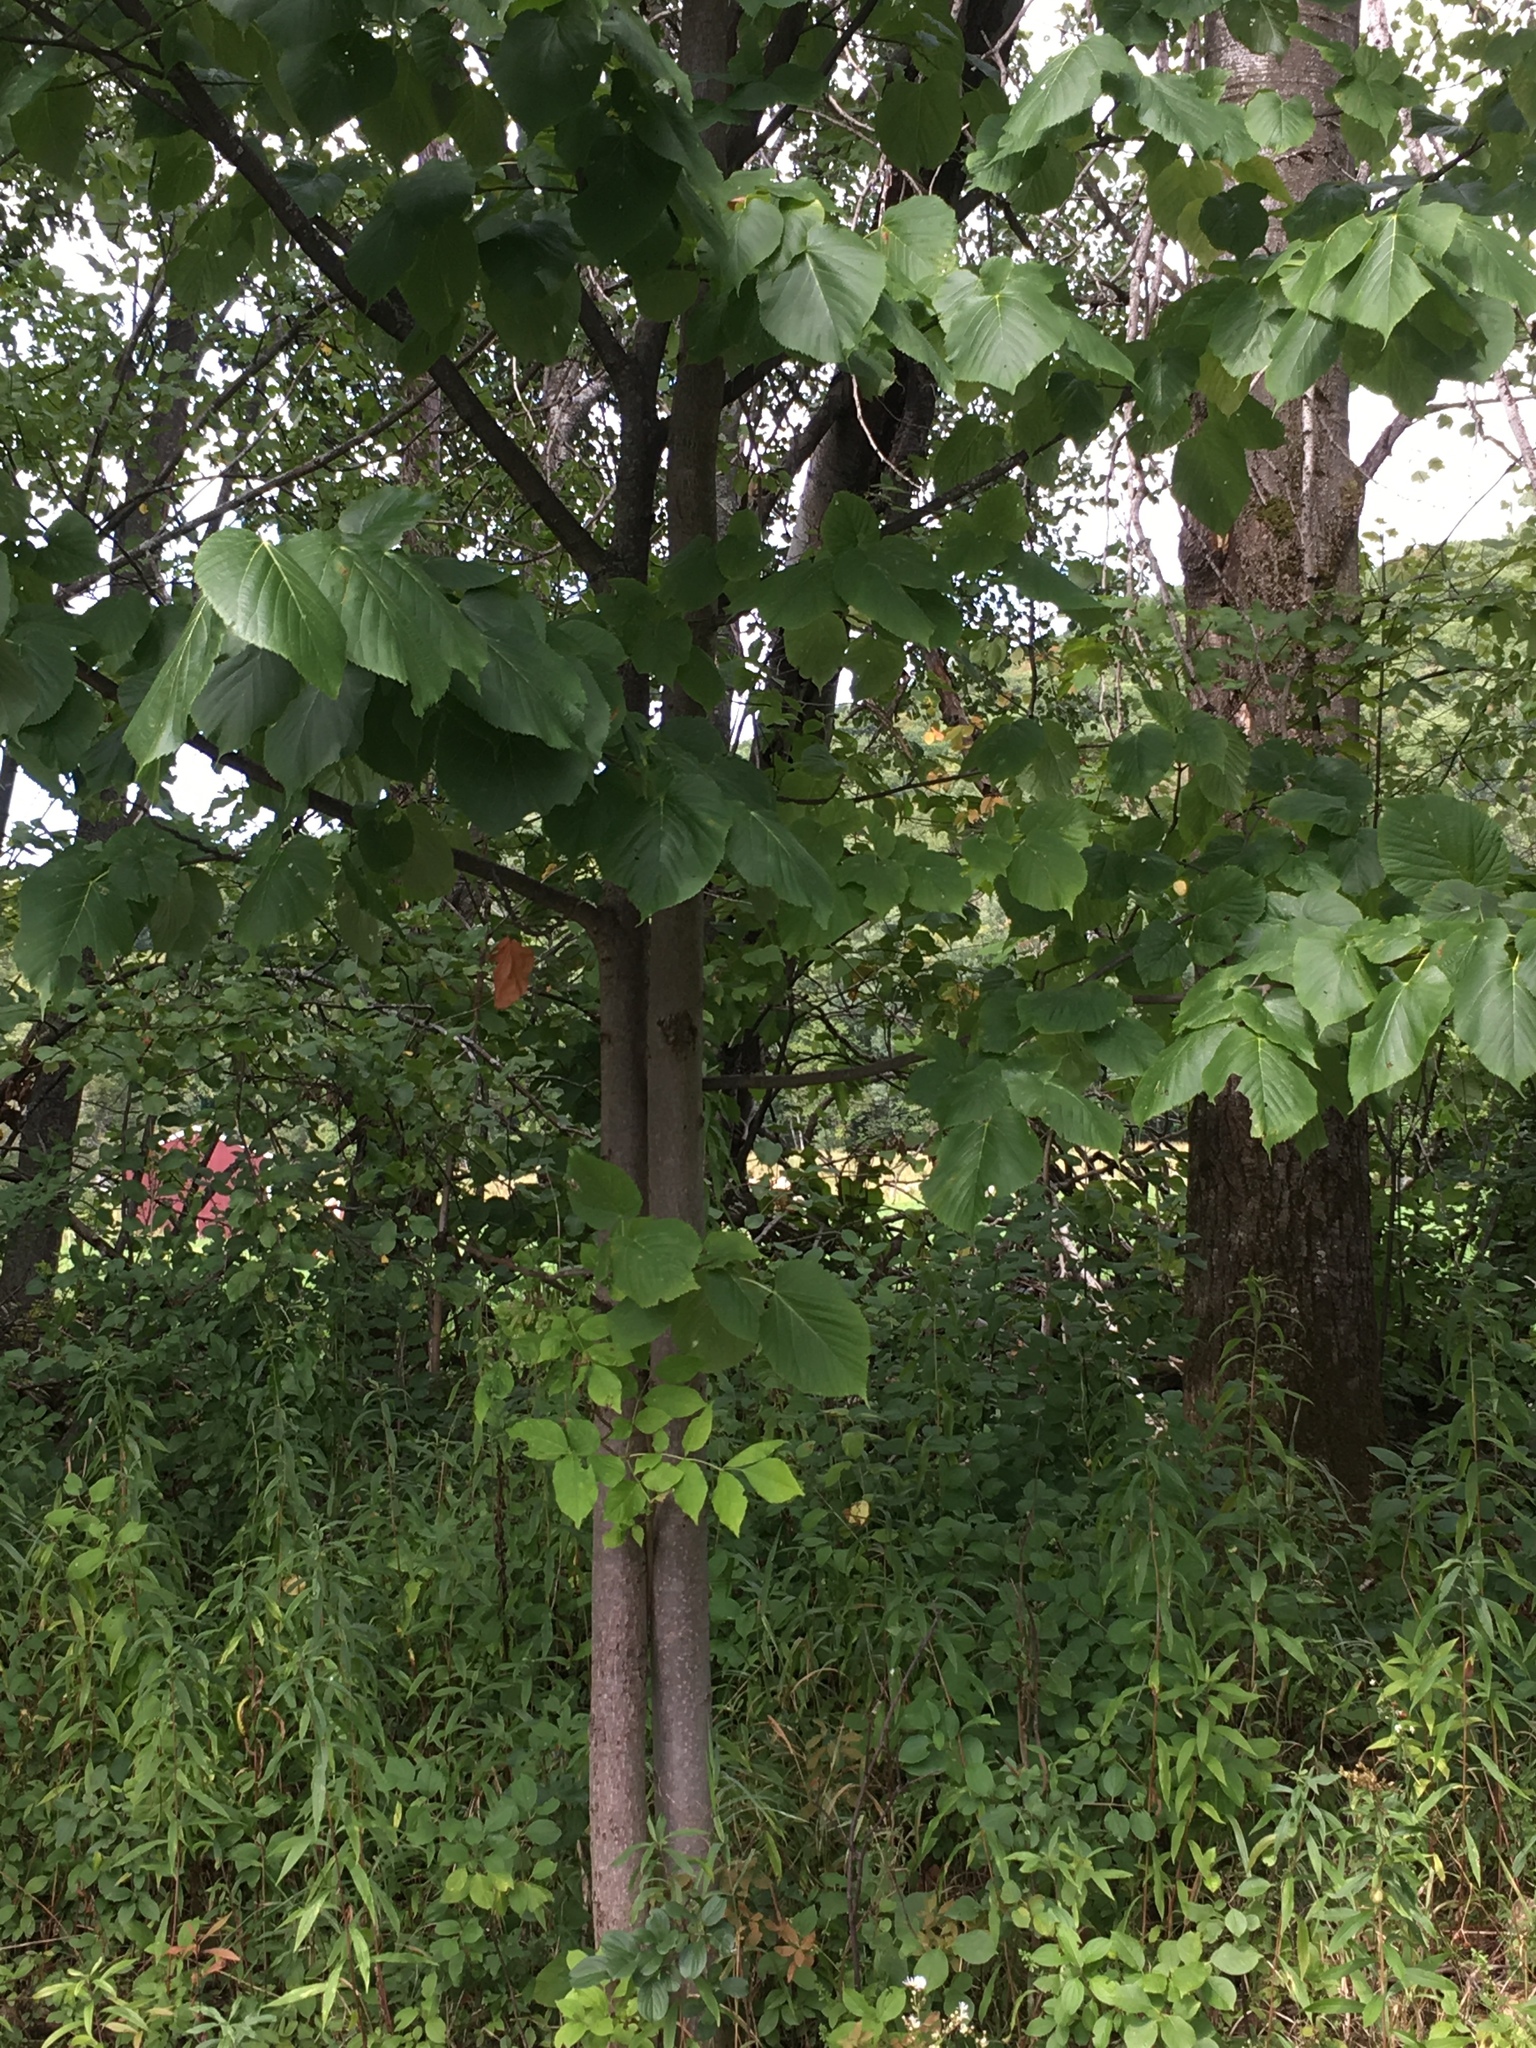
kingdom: Plantae
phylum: Tracheophyta
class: Magnoliopsida
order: Malvales
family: Malvaceae
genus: Tilia
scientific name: Tilia americana
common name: Basswood
